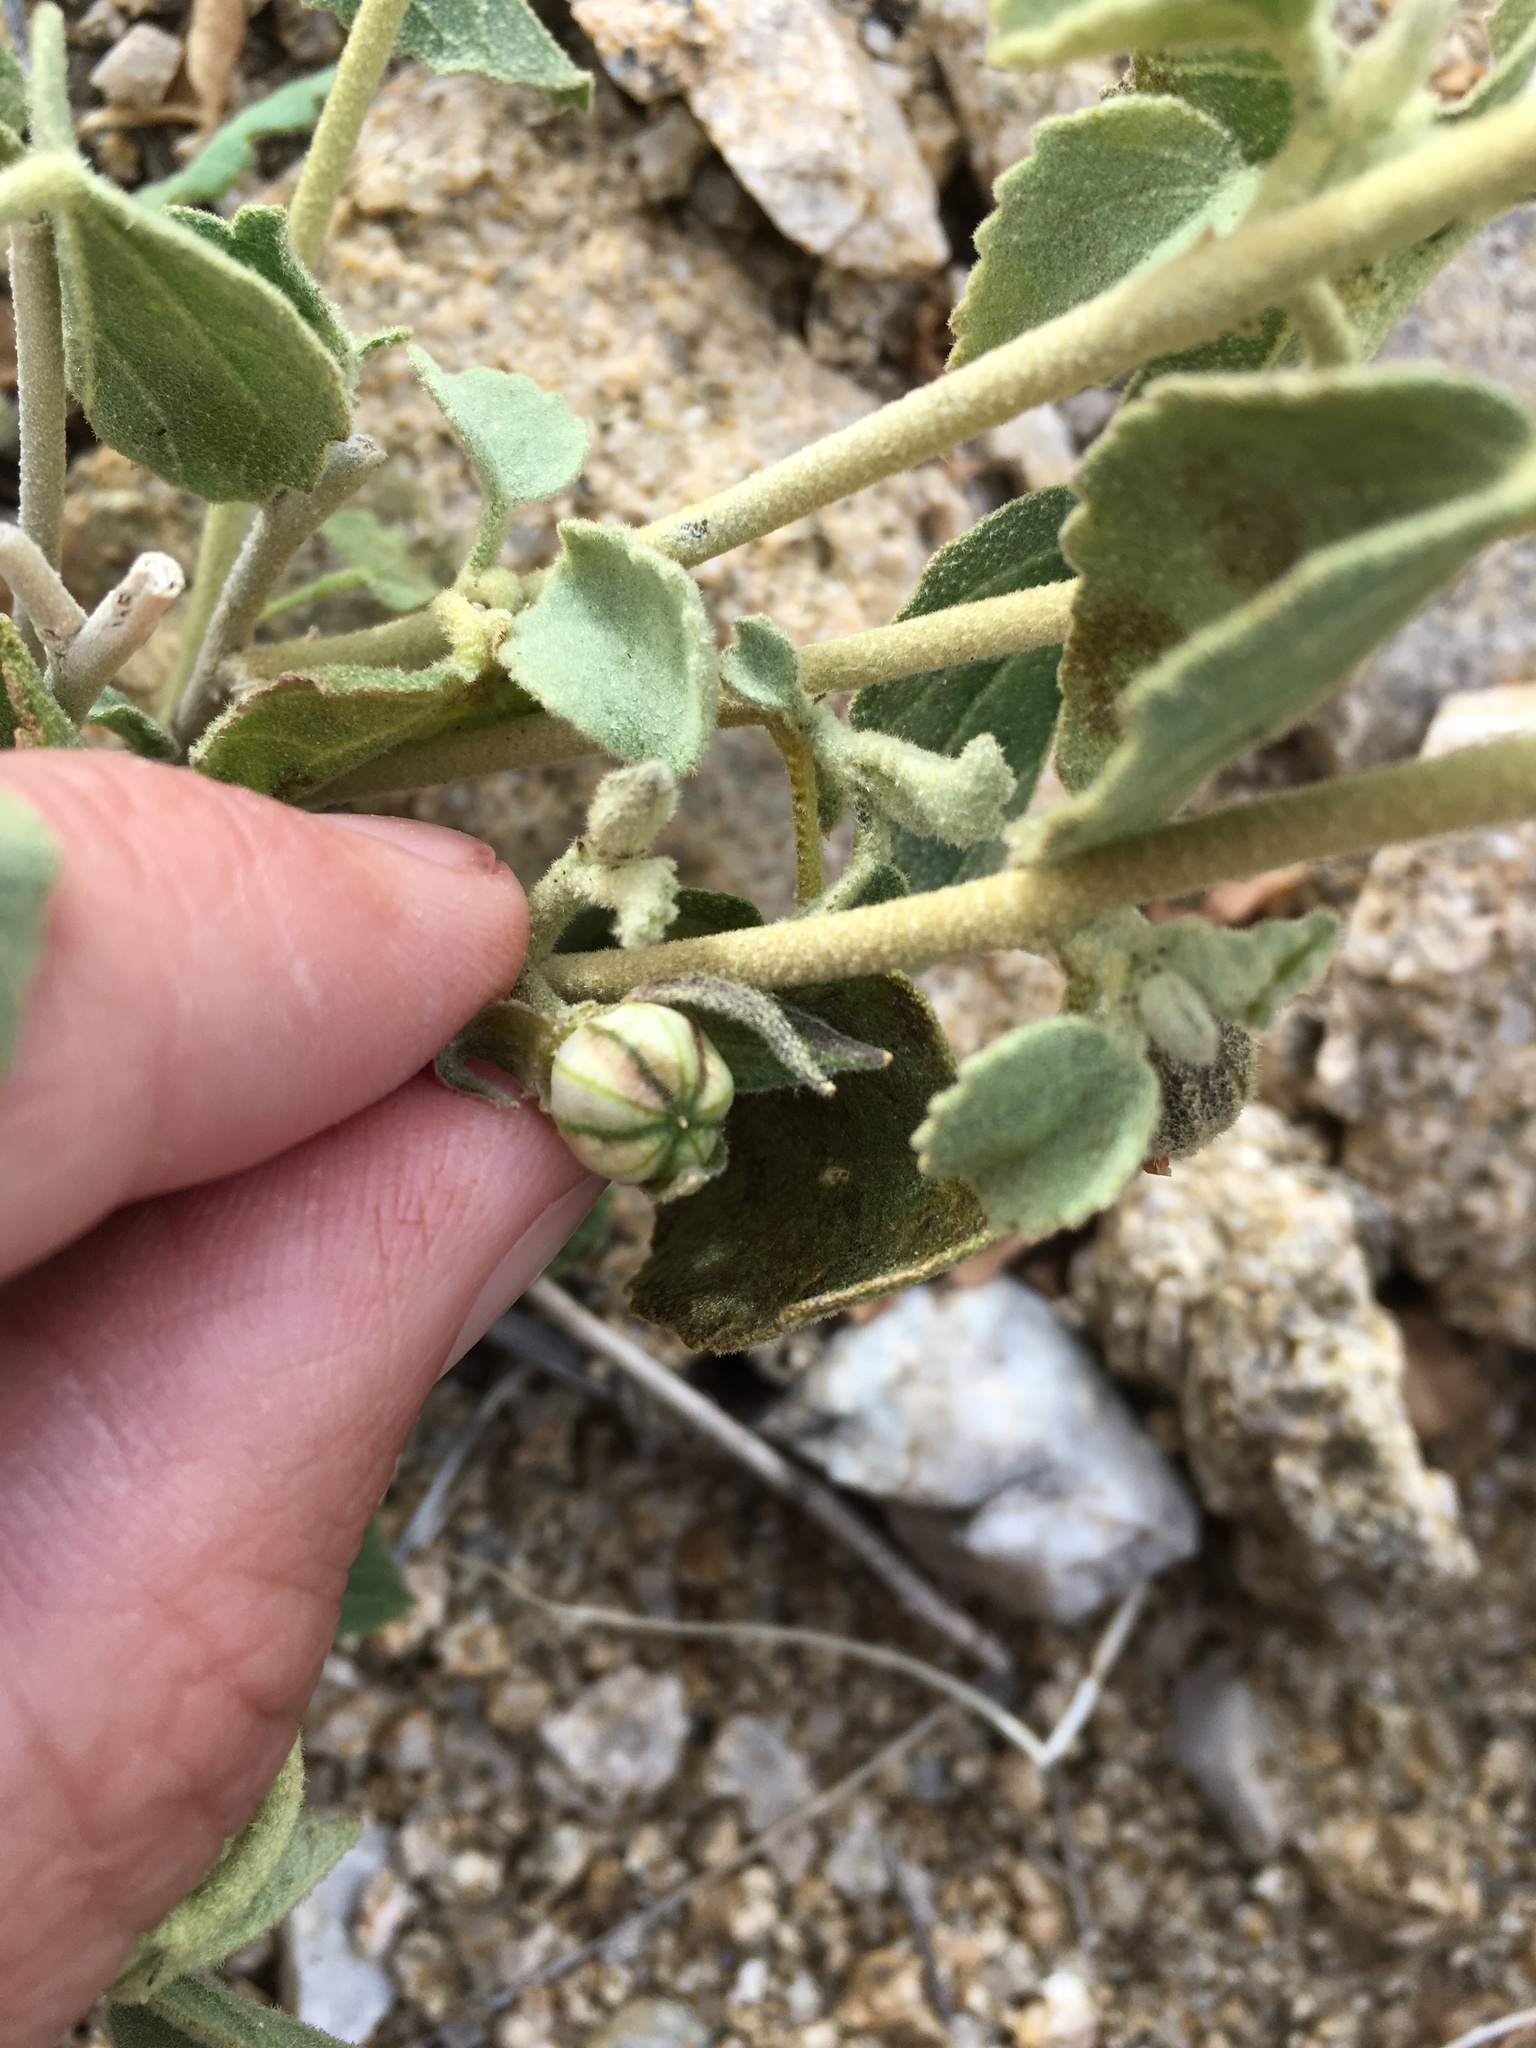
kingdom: Plantae
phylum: Tracheophyta
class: Magnoliopsida
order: Malvales
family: Malvaceae
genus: Hibiscus
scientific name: Hibiscus denudatus
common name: Paleface
